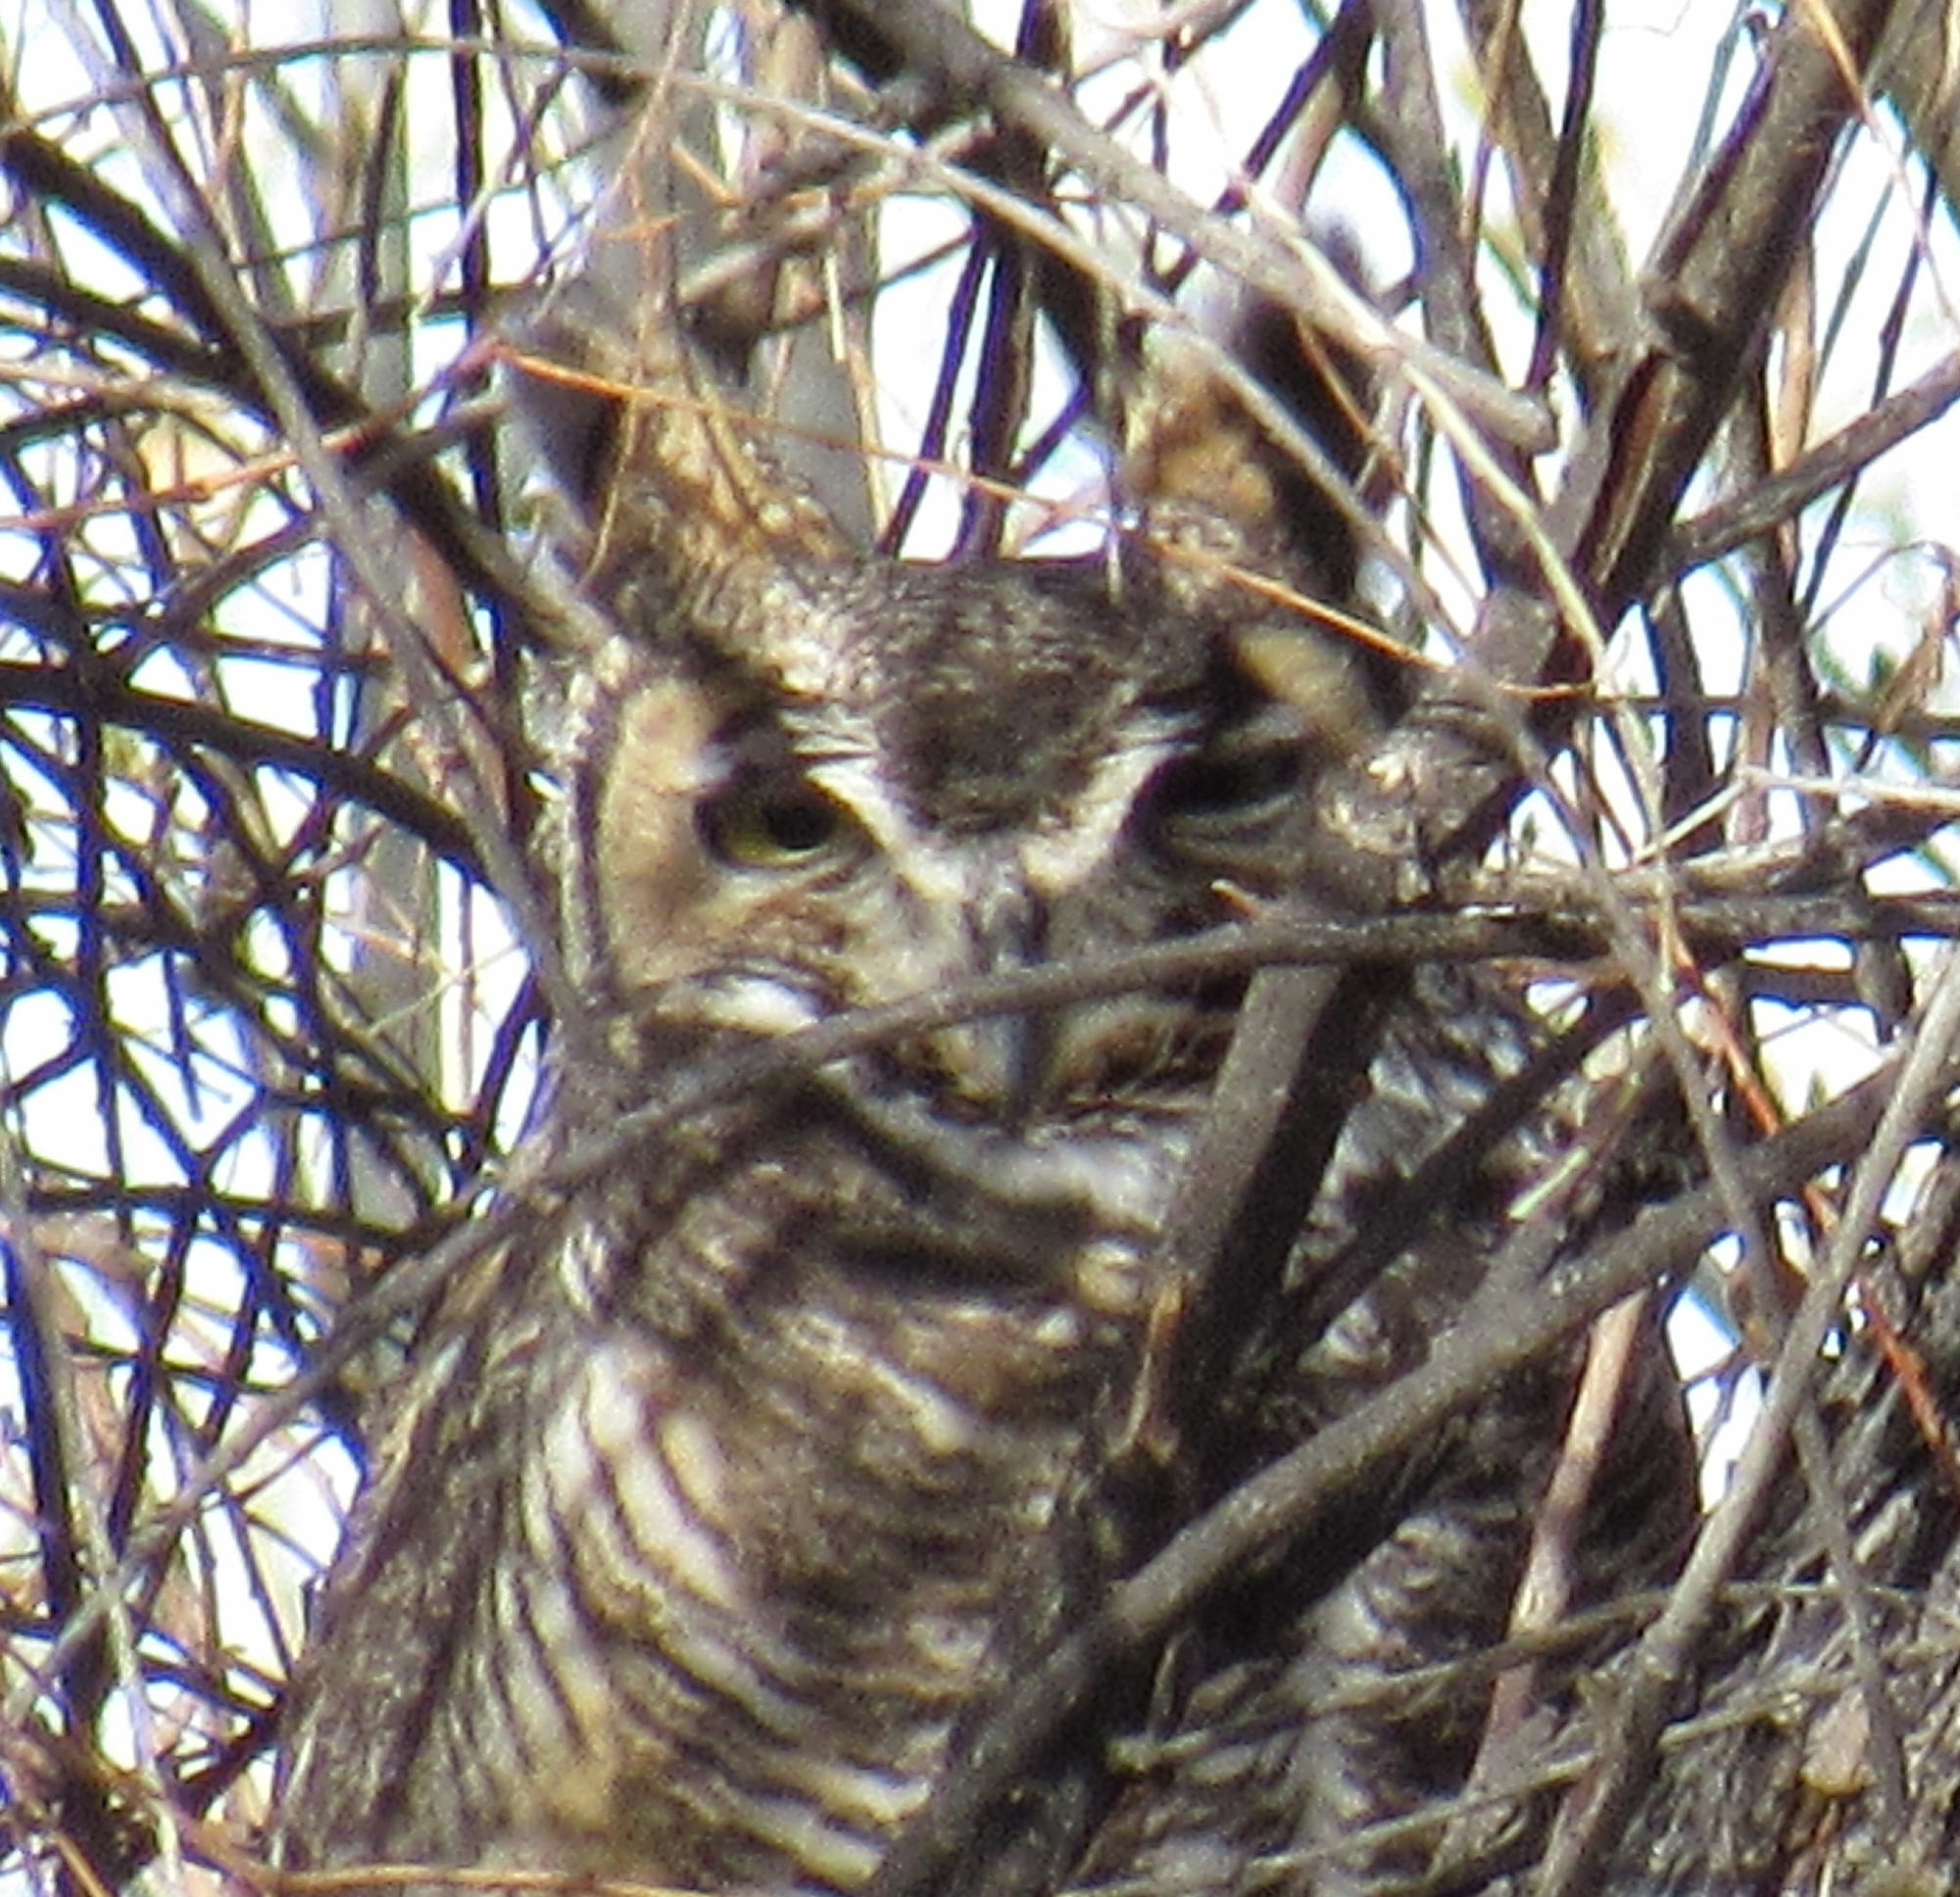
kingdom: Animalia
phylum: Chordata
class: Aves
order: Strigiformes
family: Strigidae
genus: Bubo
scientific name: Bubo virginianus
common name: Great horned owl
